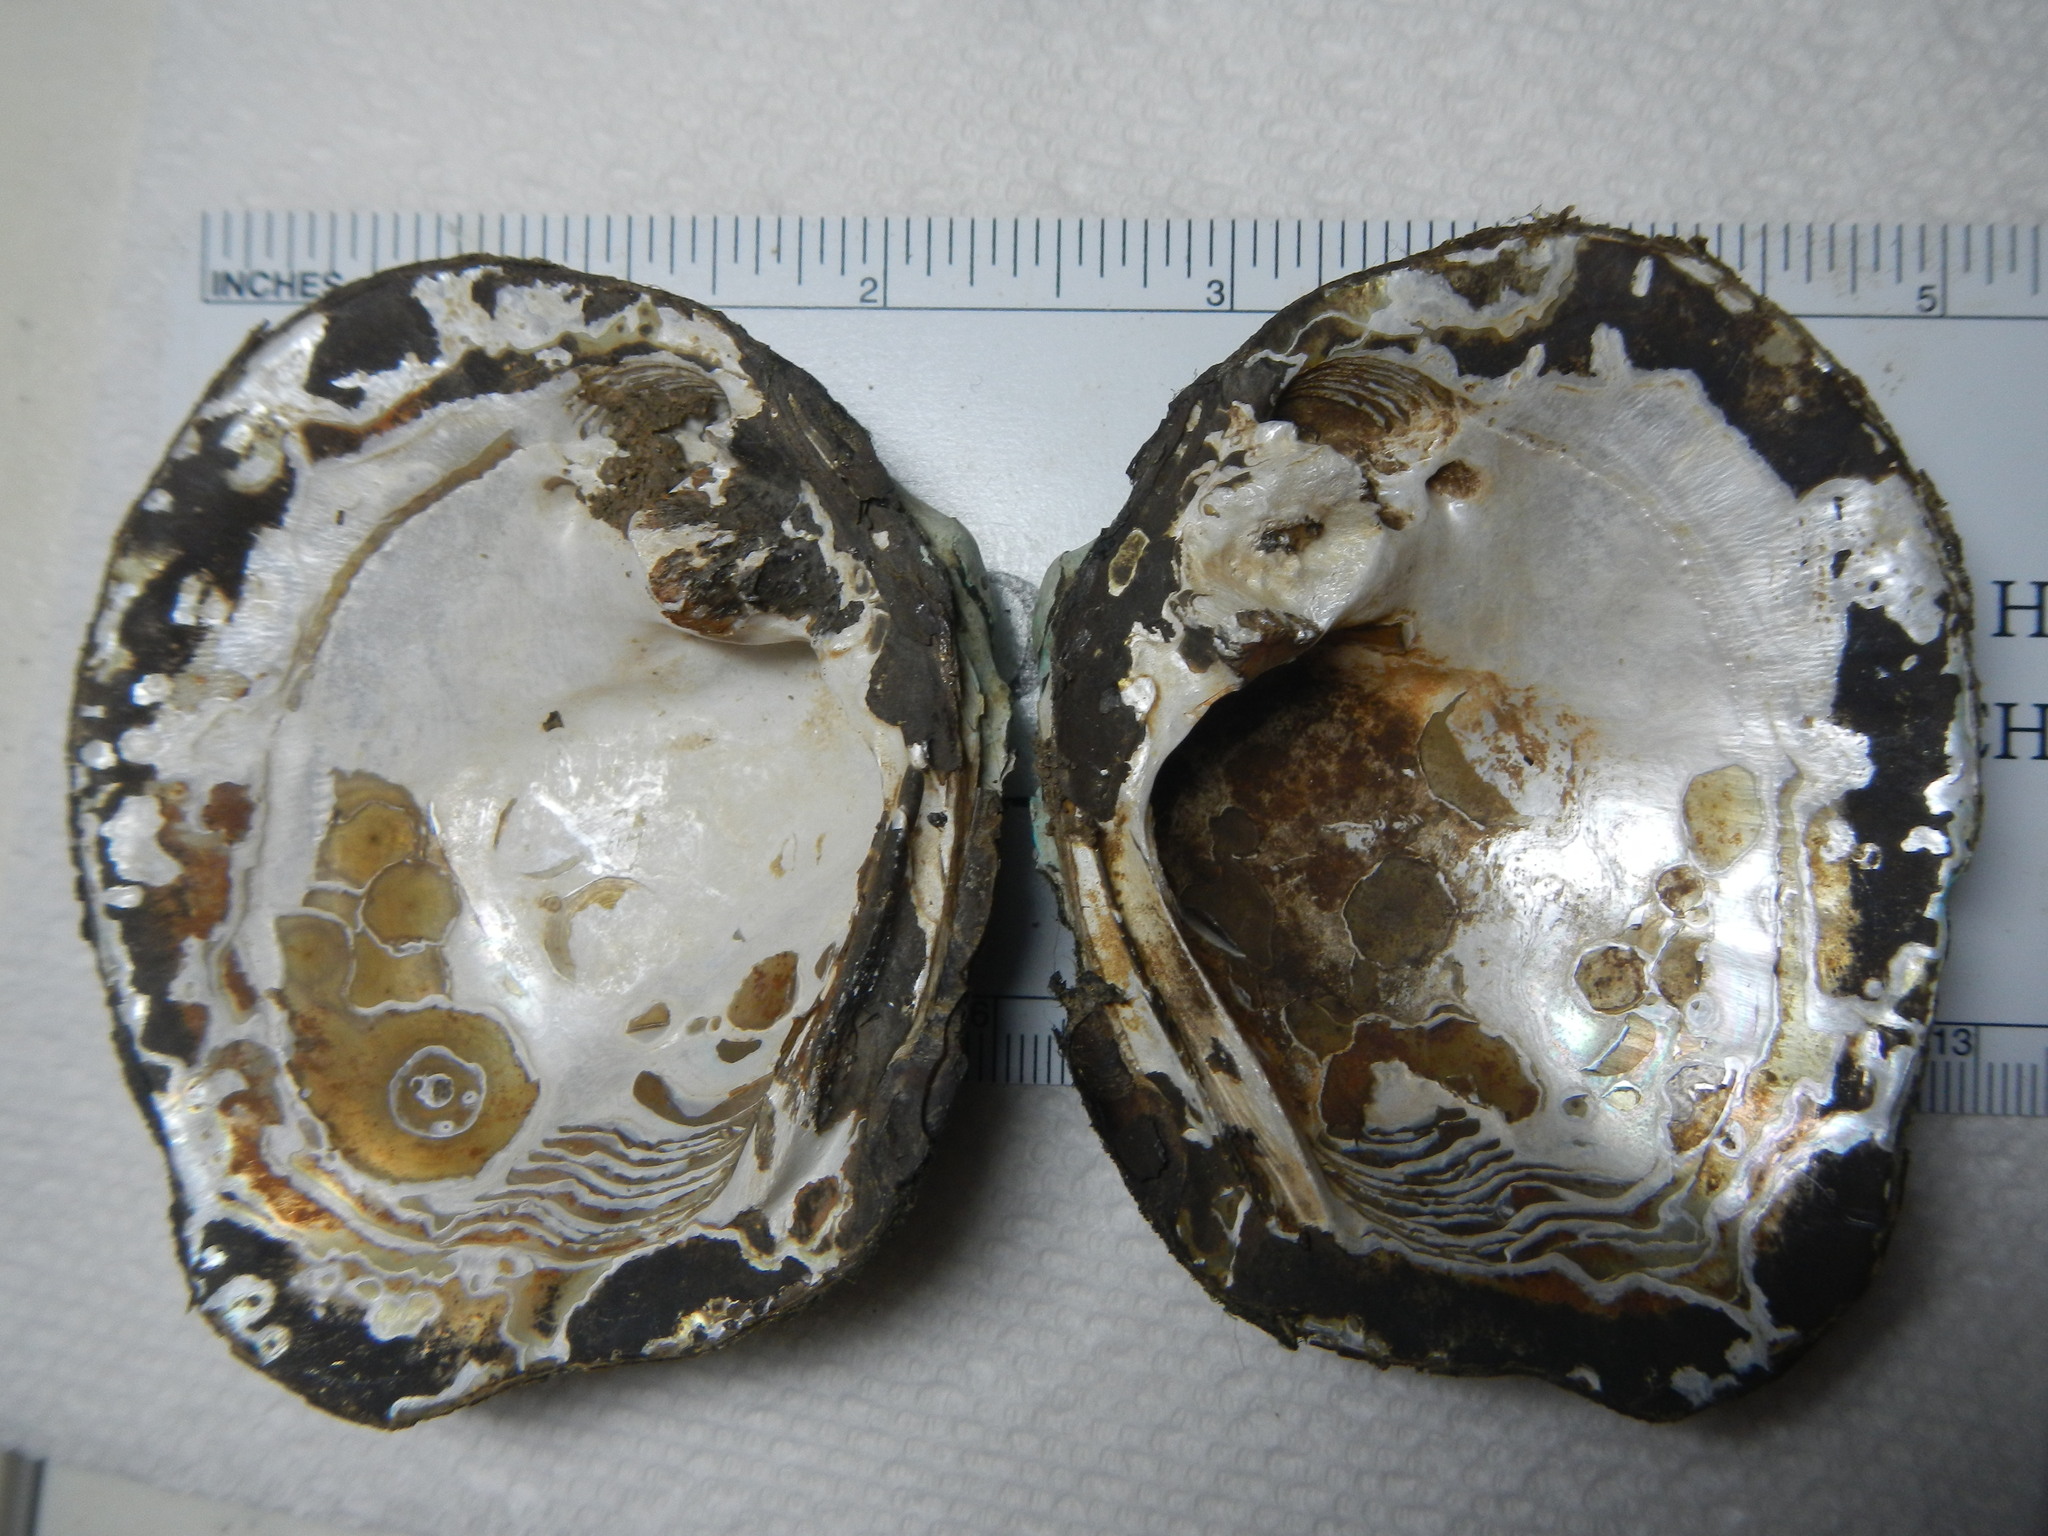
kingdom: Animalia
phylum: Mollusca
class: Bivalvia
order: Unionida
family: Unionidae
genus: Quadrula
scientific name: Quadrula quadrula
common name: Mapleleaf
